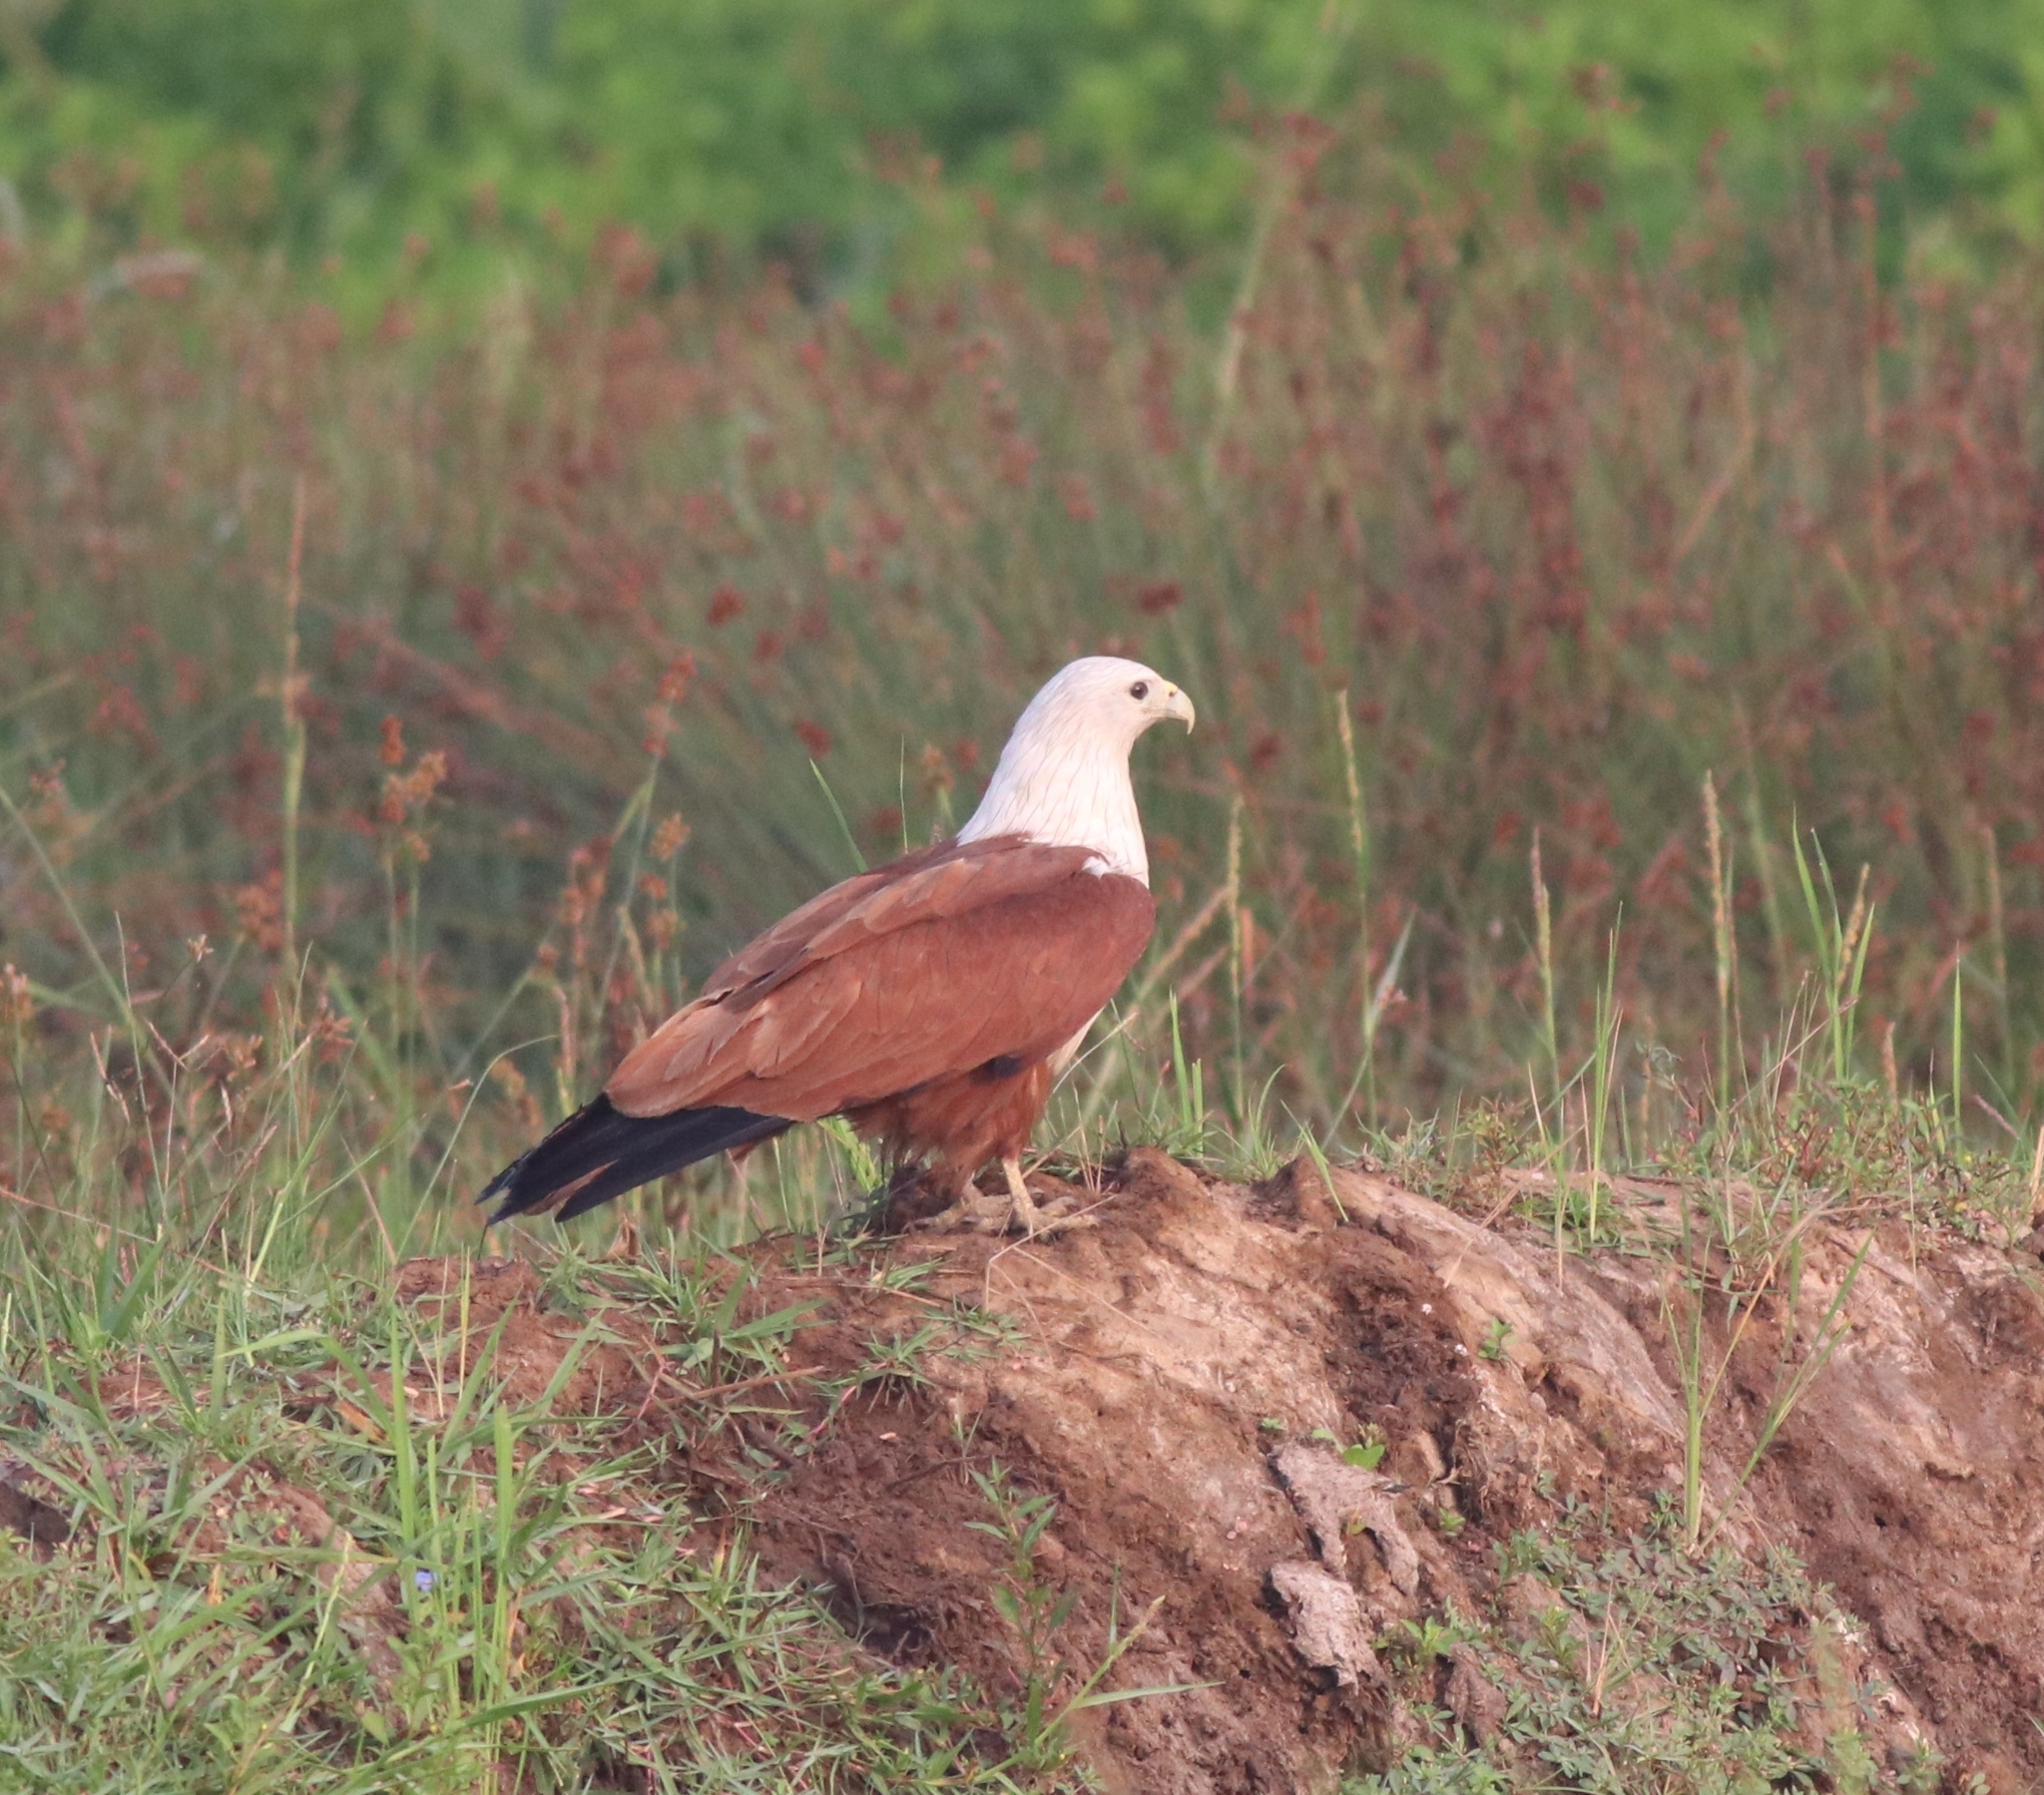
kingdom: Animalia
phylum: Chordata
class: Aves
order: Accipitriformes
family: Accipitridae
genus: Haliastur
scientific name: Haliastur indus
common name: Brahminy kite
